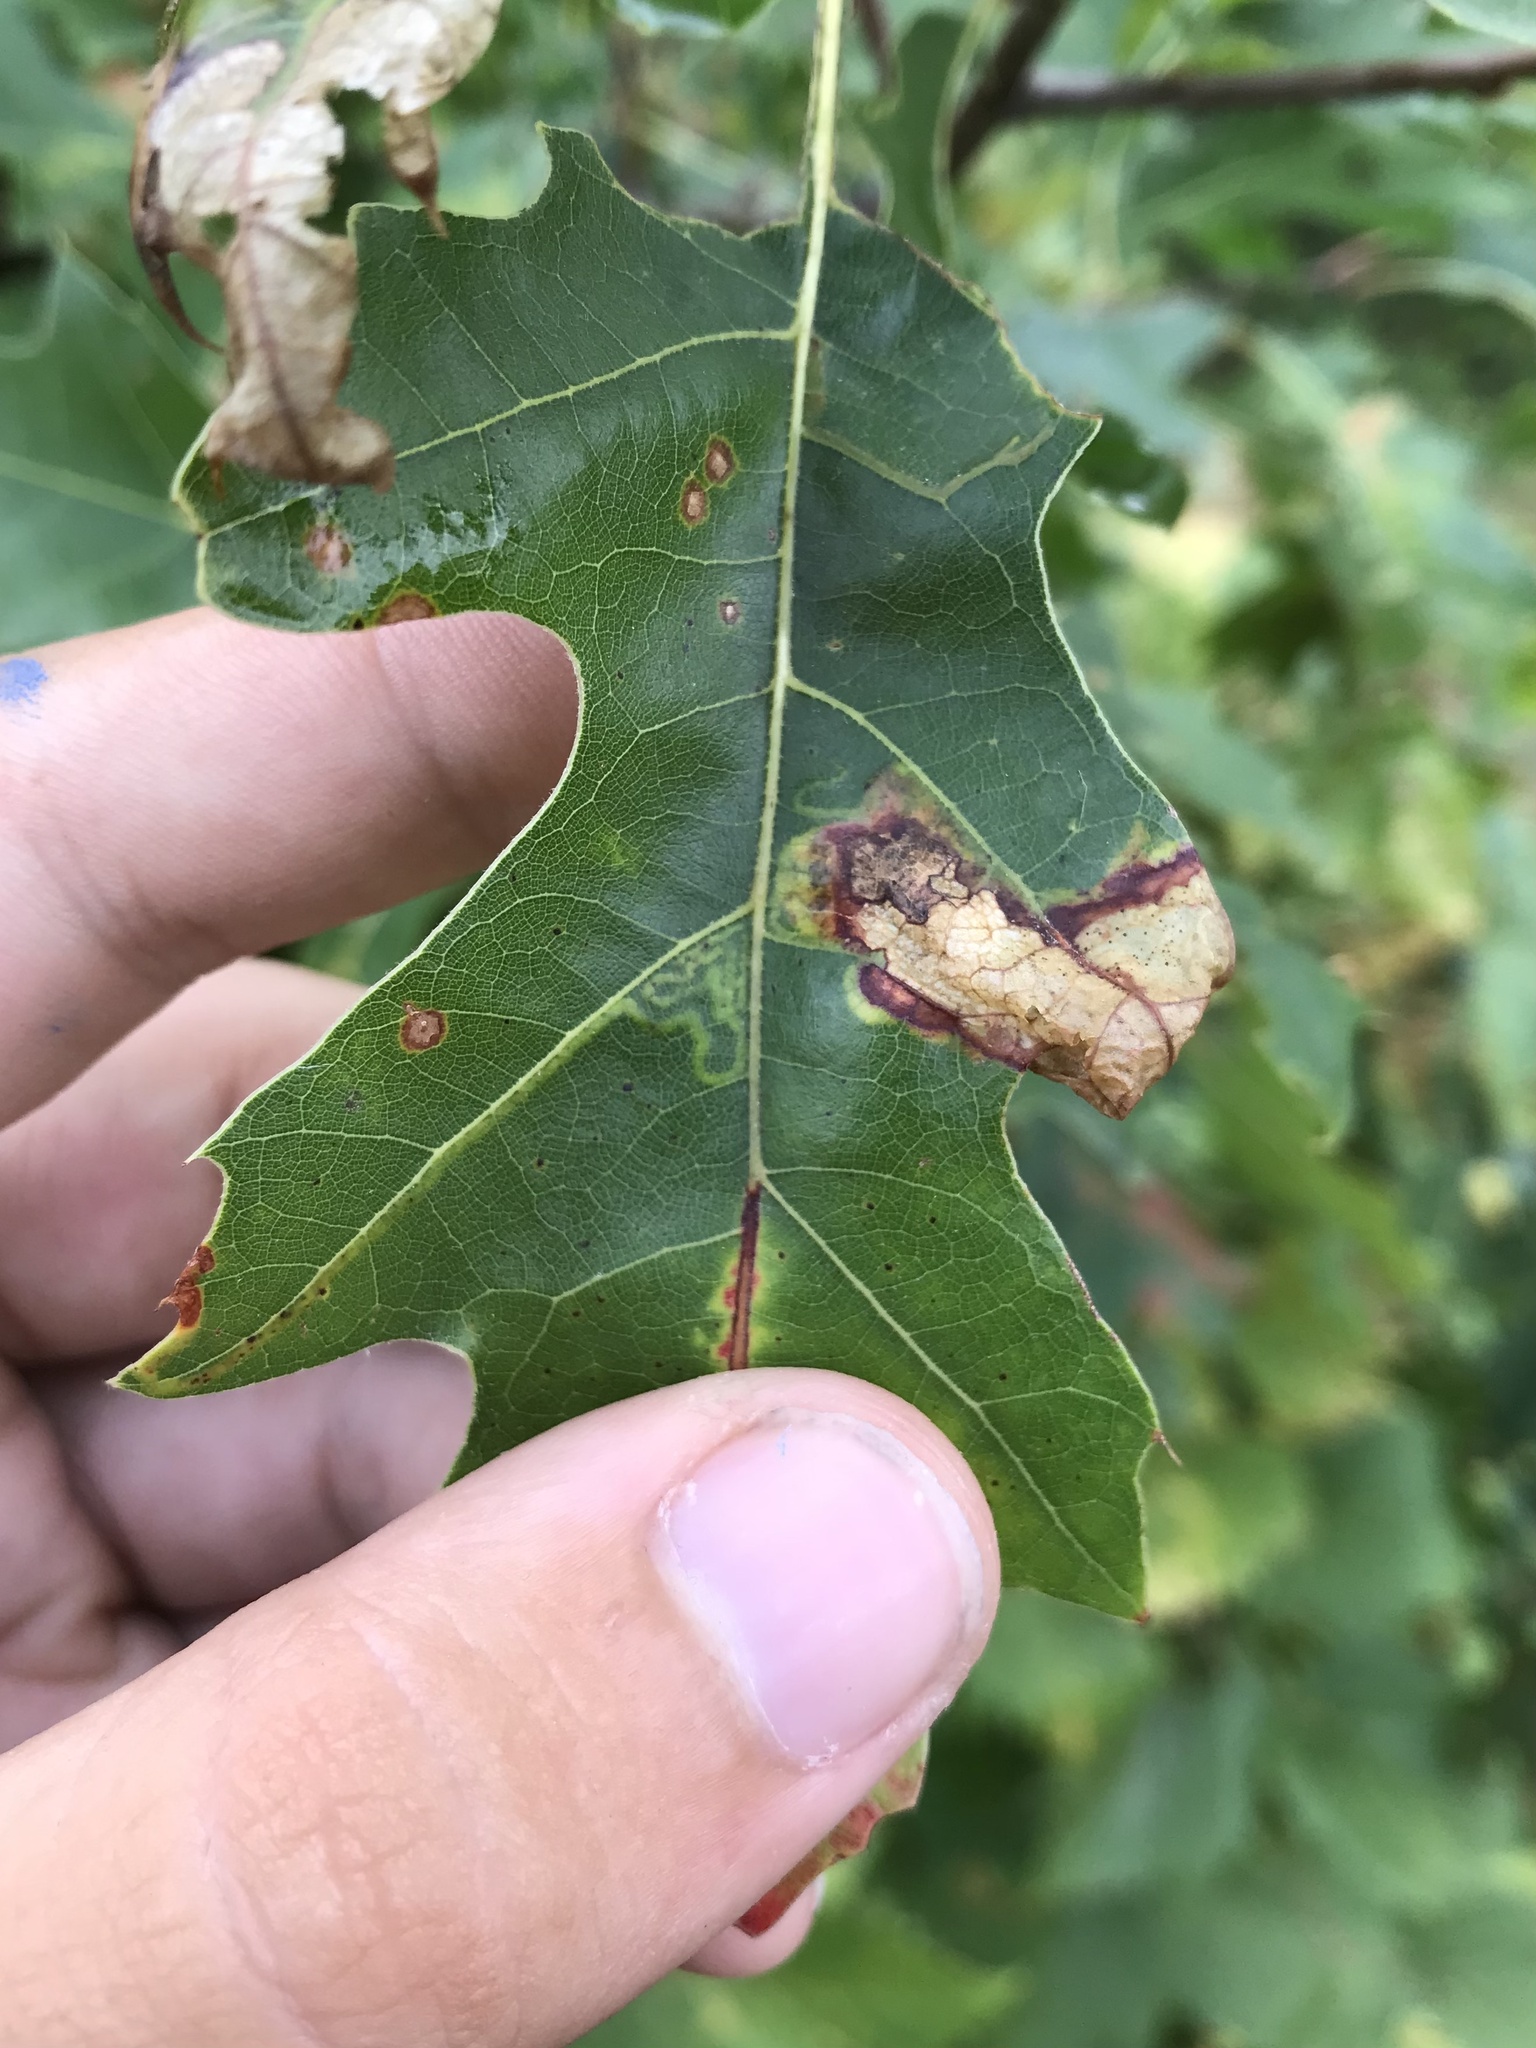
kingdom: Animalia
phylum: Arthropoda
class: Insecta
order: Lepidoptera
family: Gracillariidae
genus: Acrocercops
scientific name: Acrocercops albinatella
